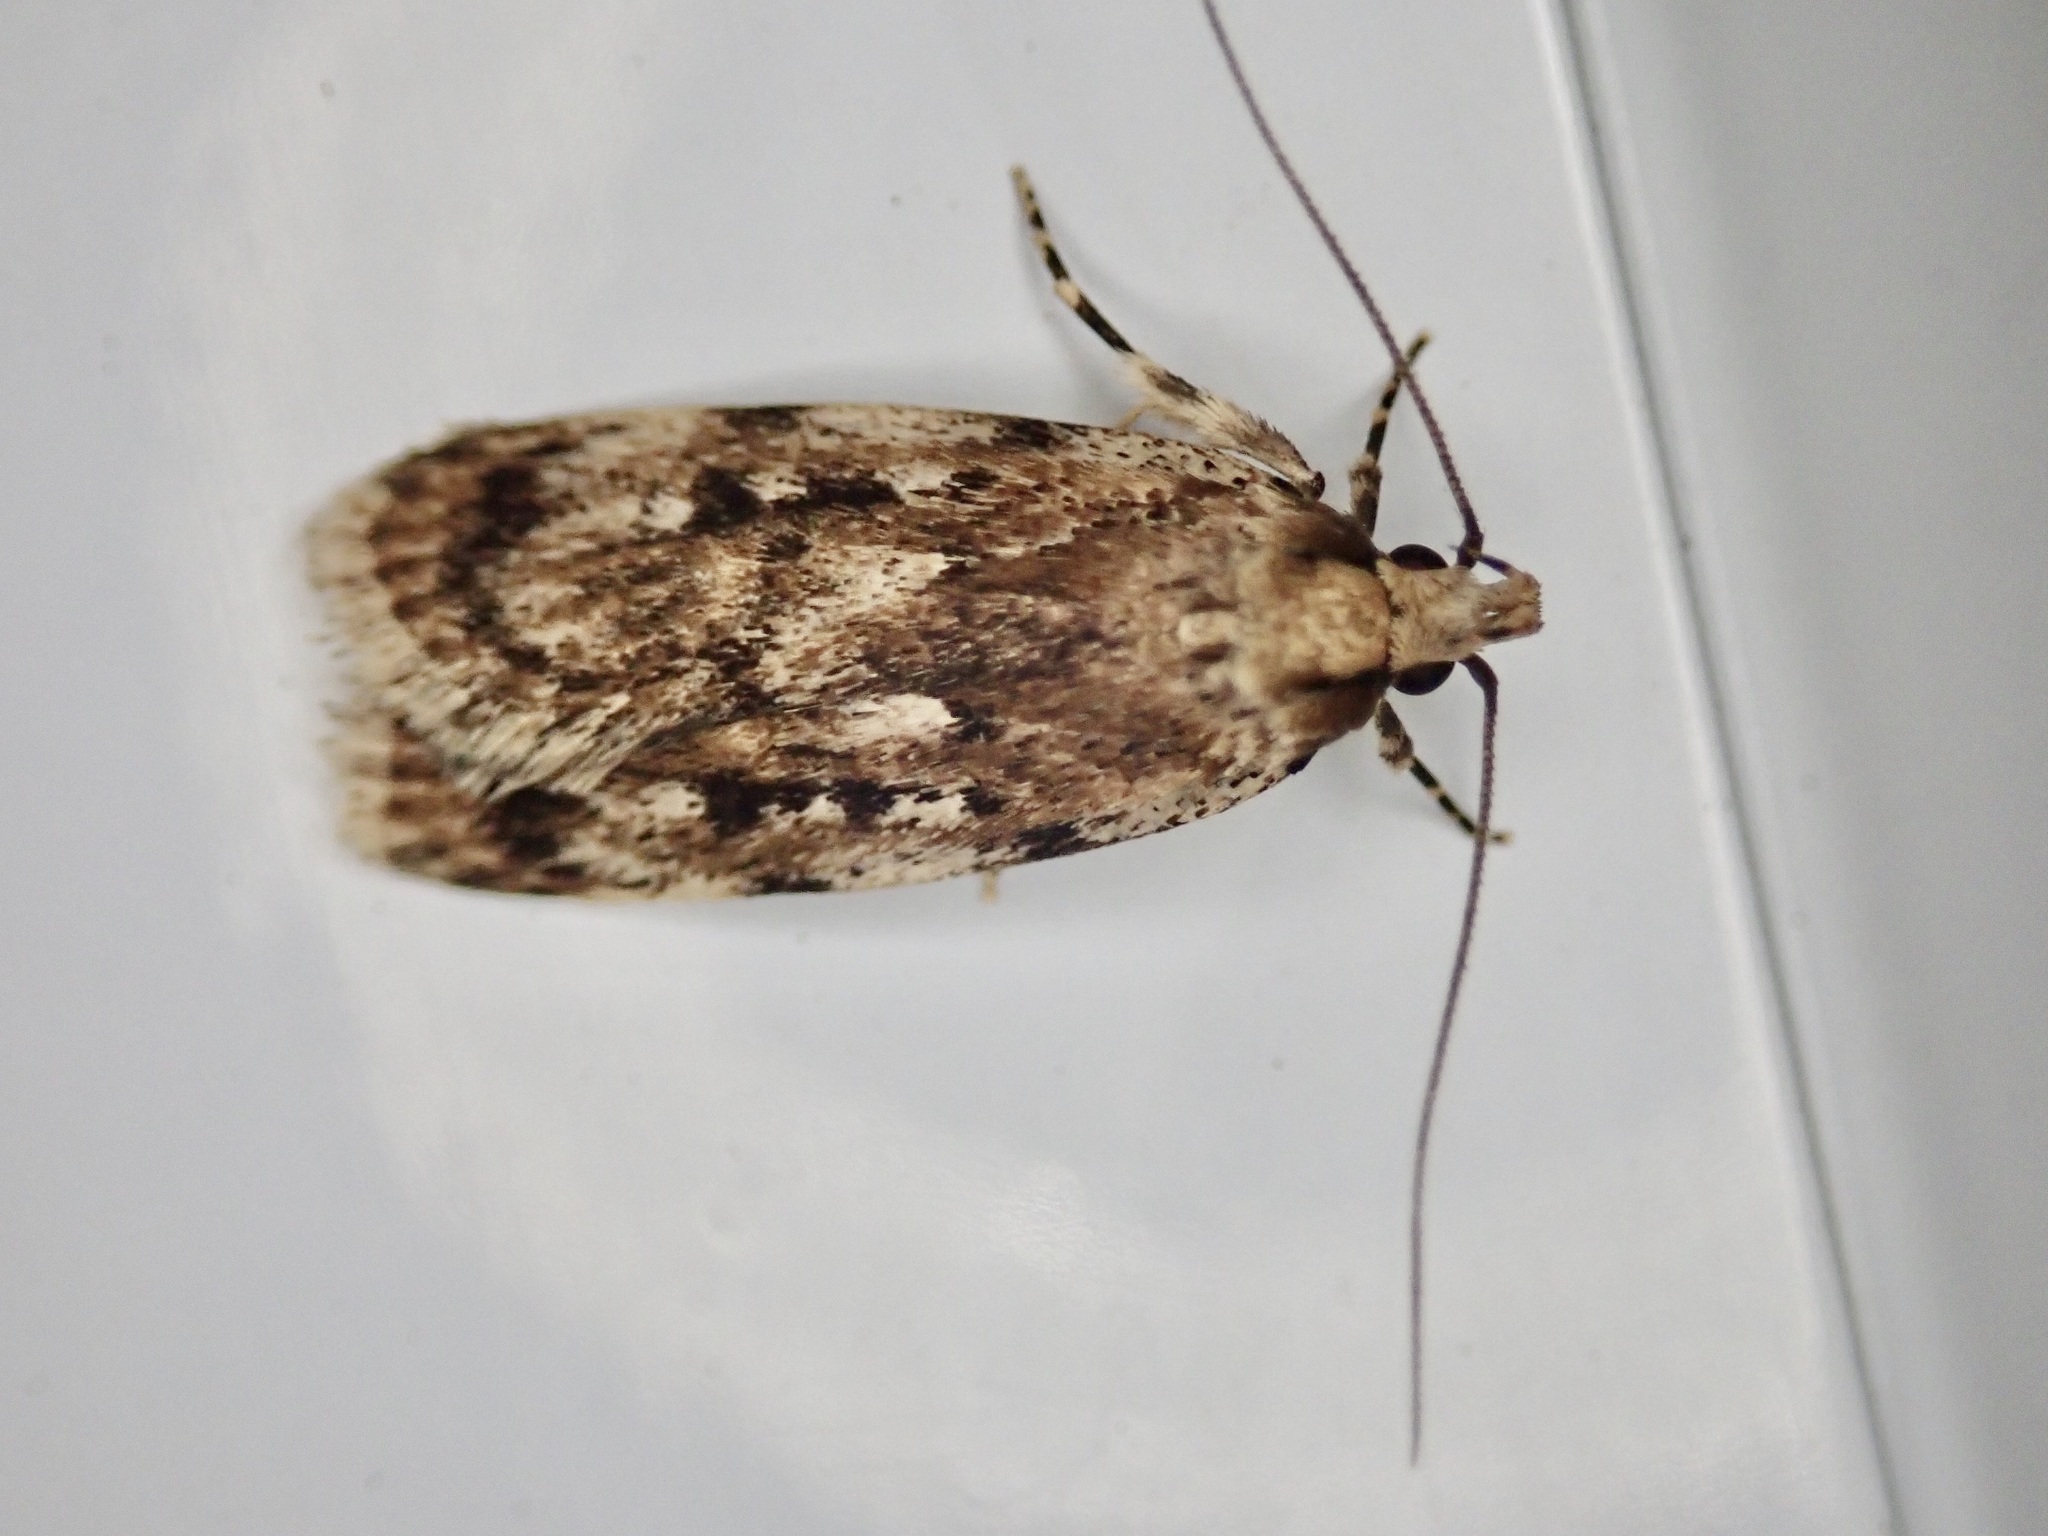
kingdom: Animalia
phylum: Arthropoda
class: Insecta
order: Lepidoptera
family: Oecophoridae
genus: Barea
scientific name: Barea exarcha
